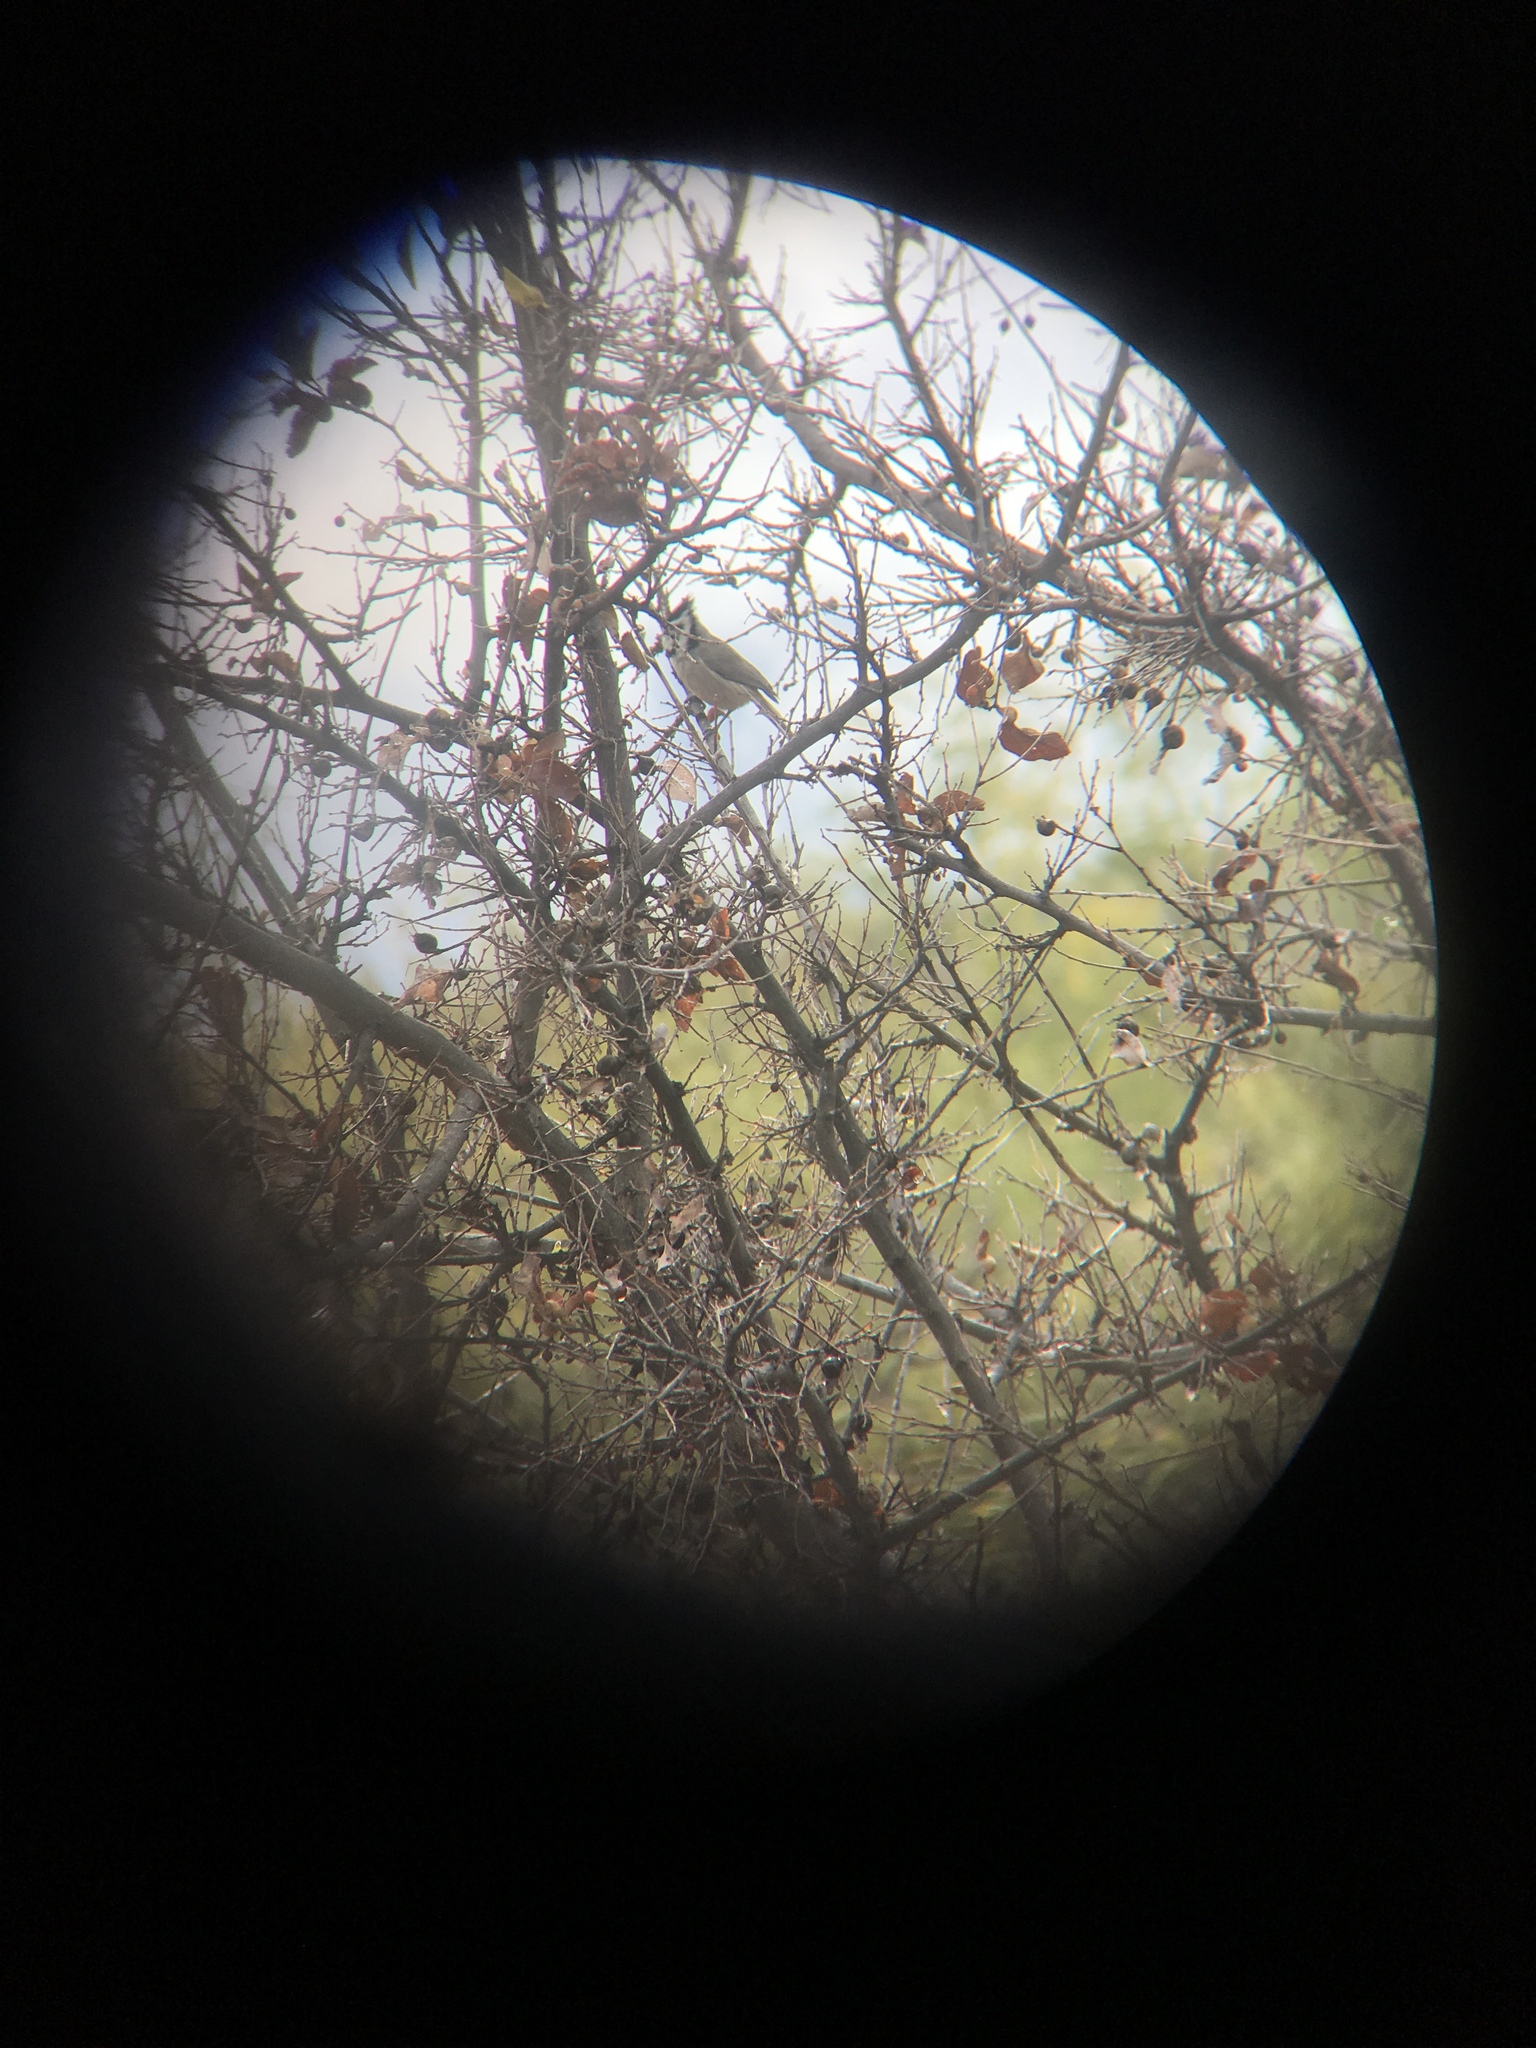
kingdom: Animalia
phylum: Chordata
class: Aves
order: Passeriformes
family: Paridae
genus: Baeolophus
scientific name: Baeolophus wollweberi
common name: Bridled titmouse
